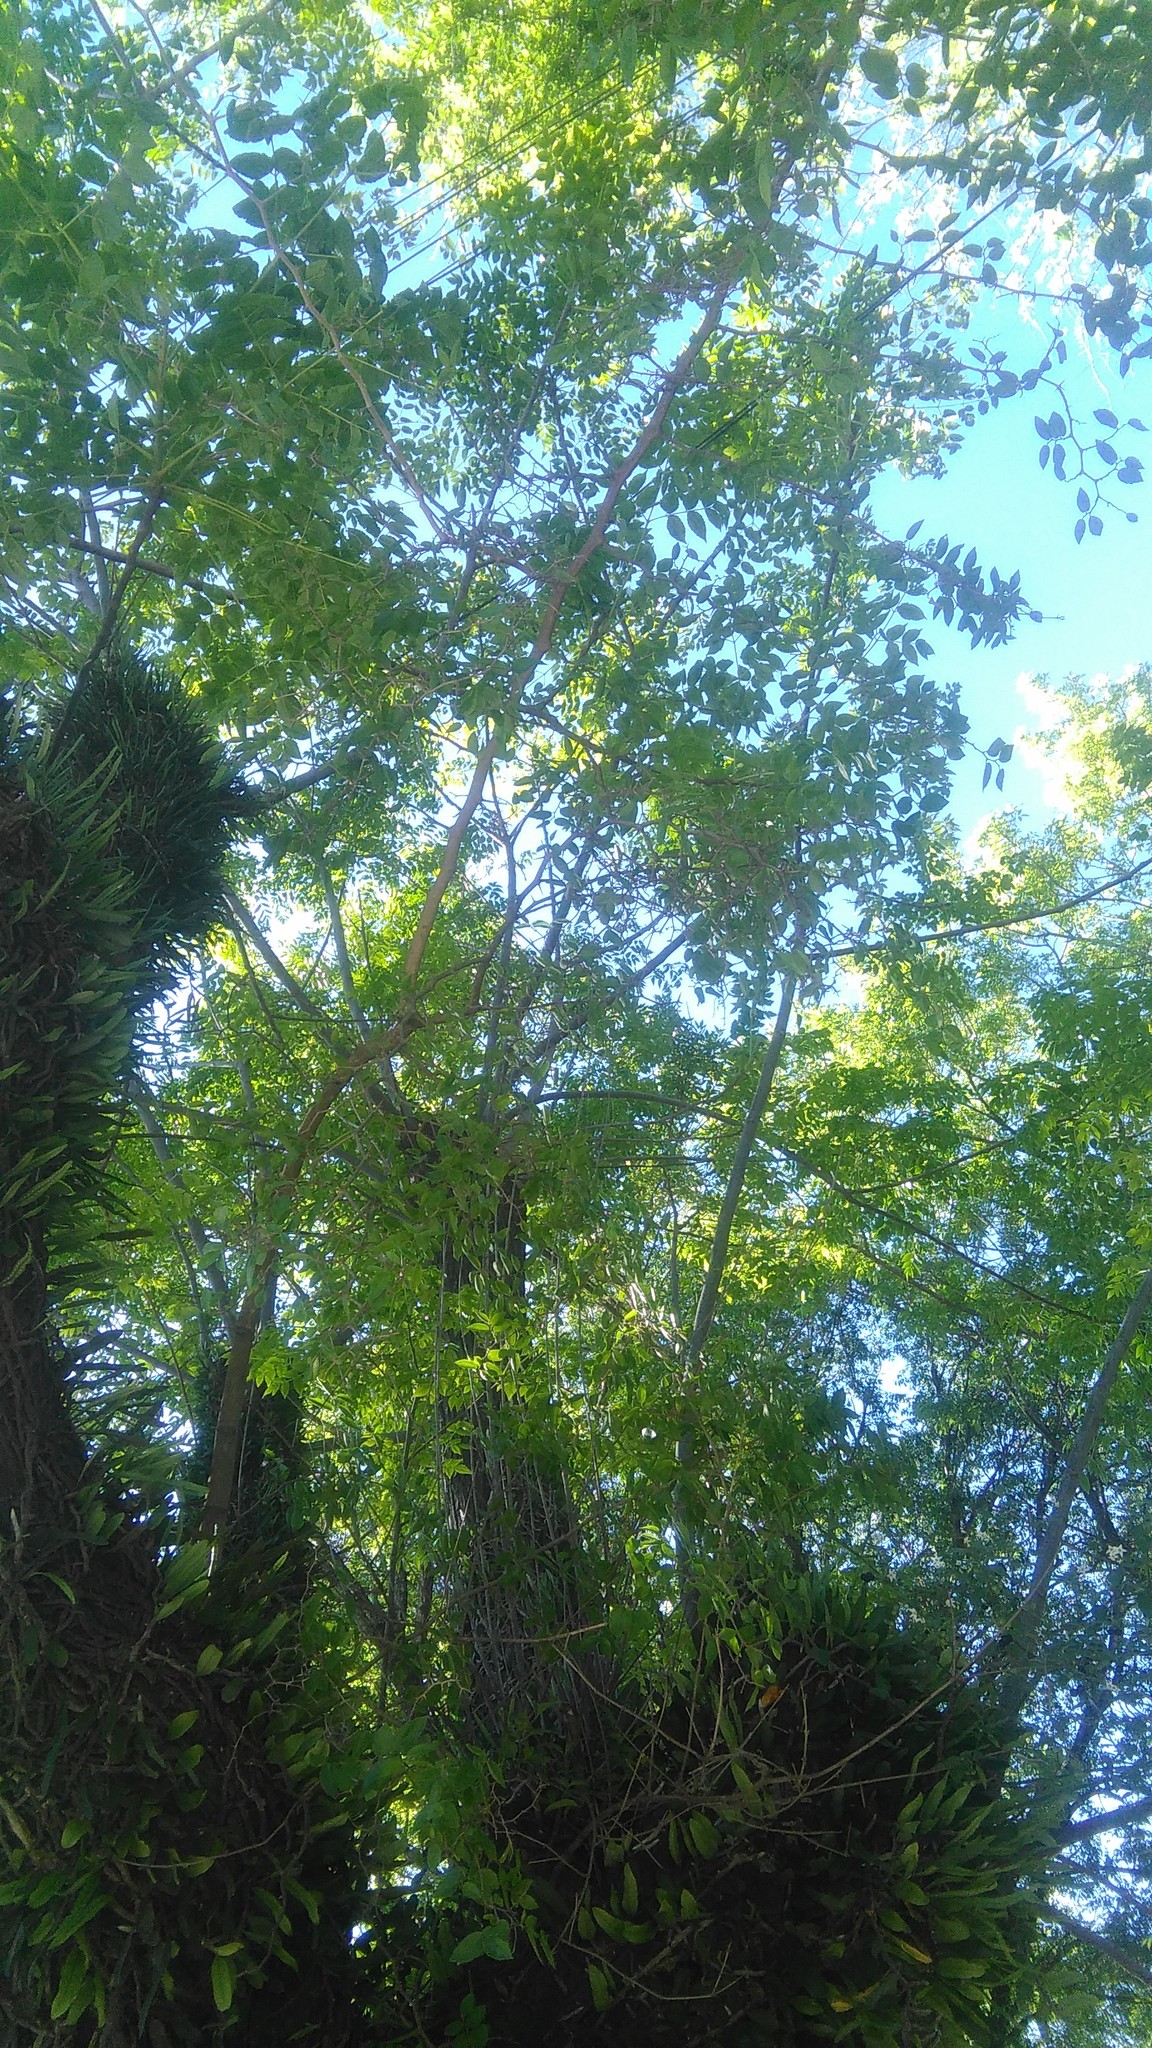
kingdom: Plantae
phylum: Tracheophyta
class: Magnoliopsida
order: Rosales
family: Cannabaceae
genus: Celtis
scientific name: Celtis tala
